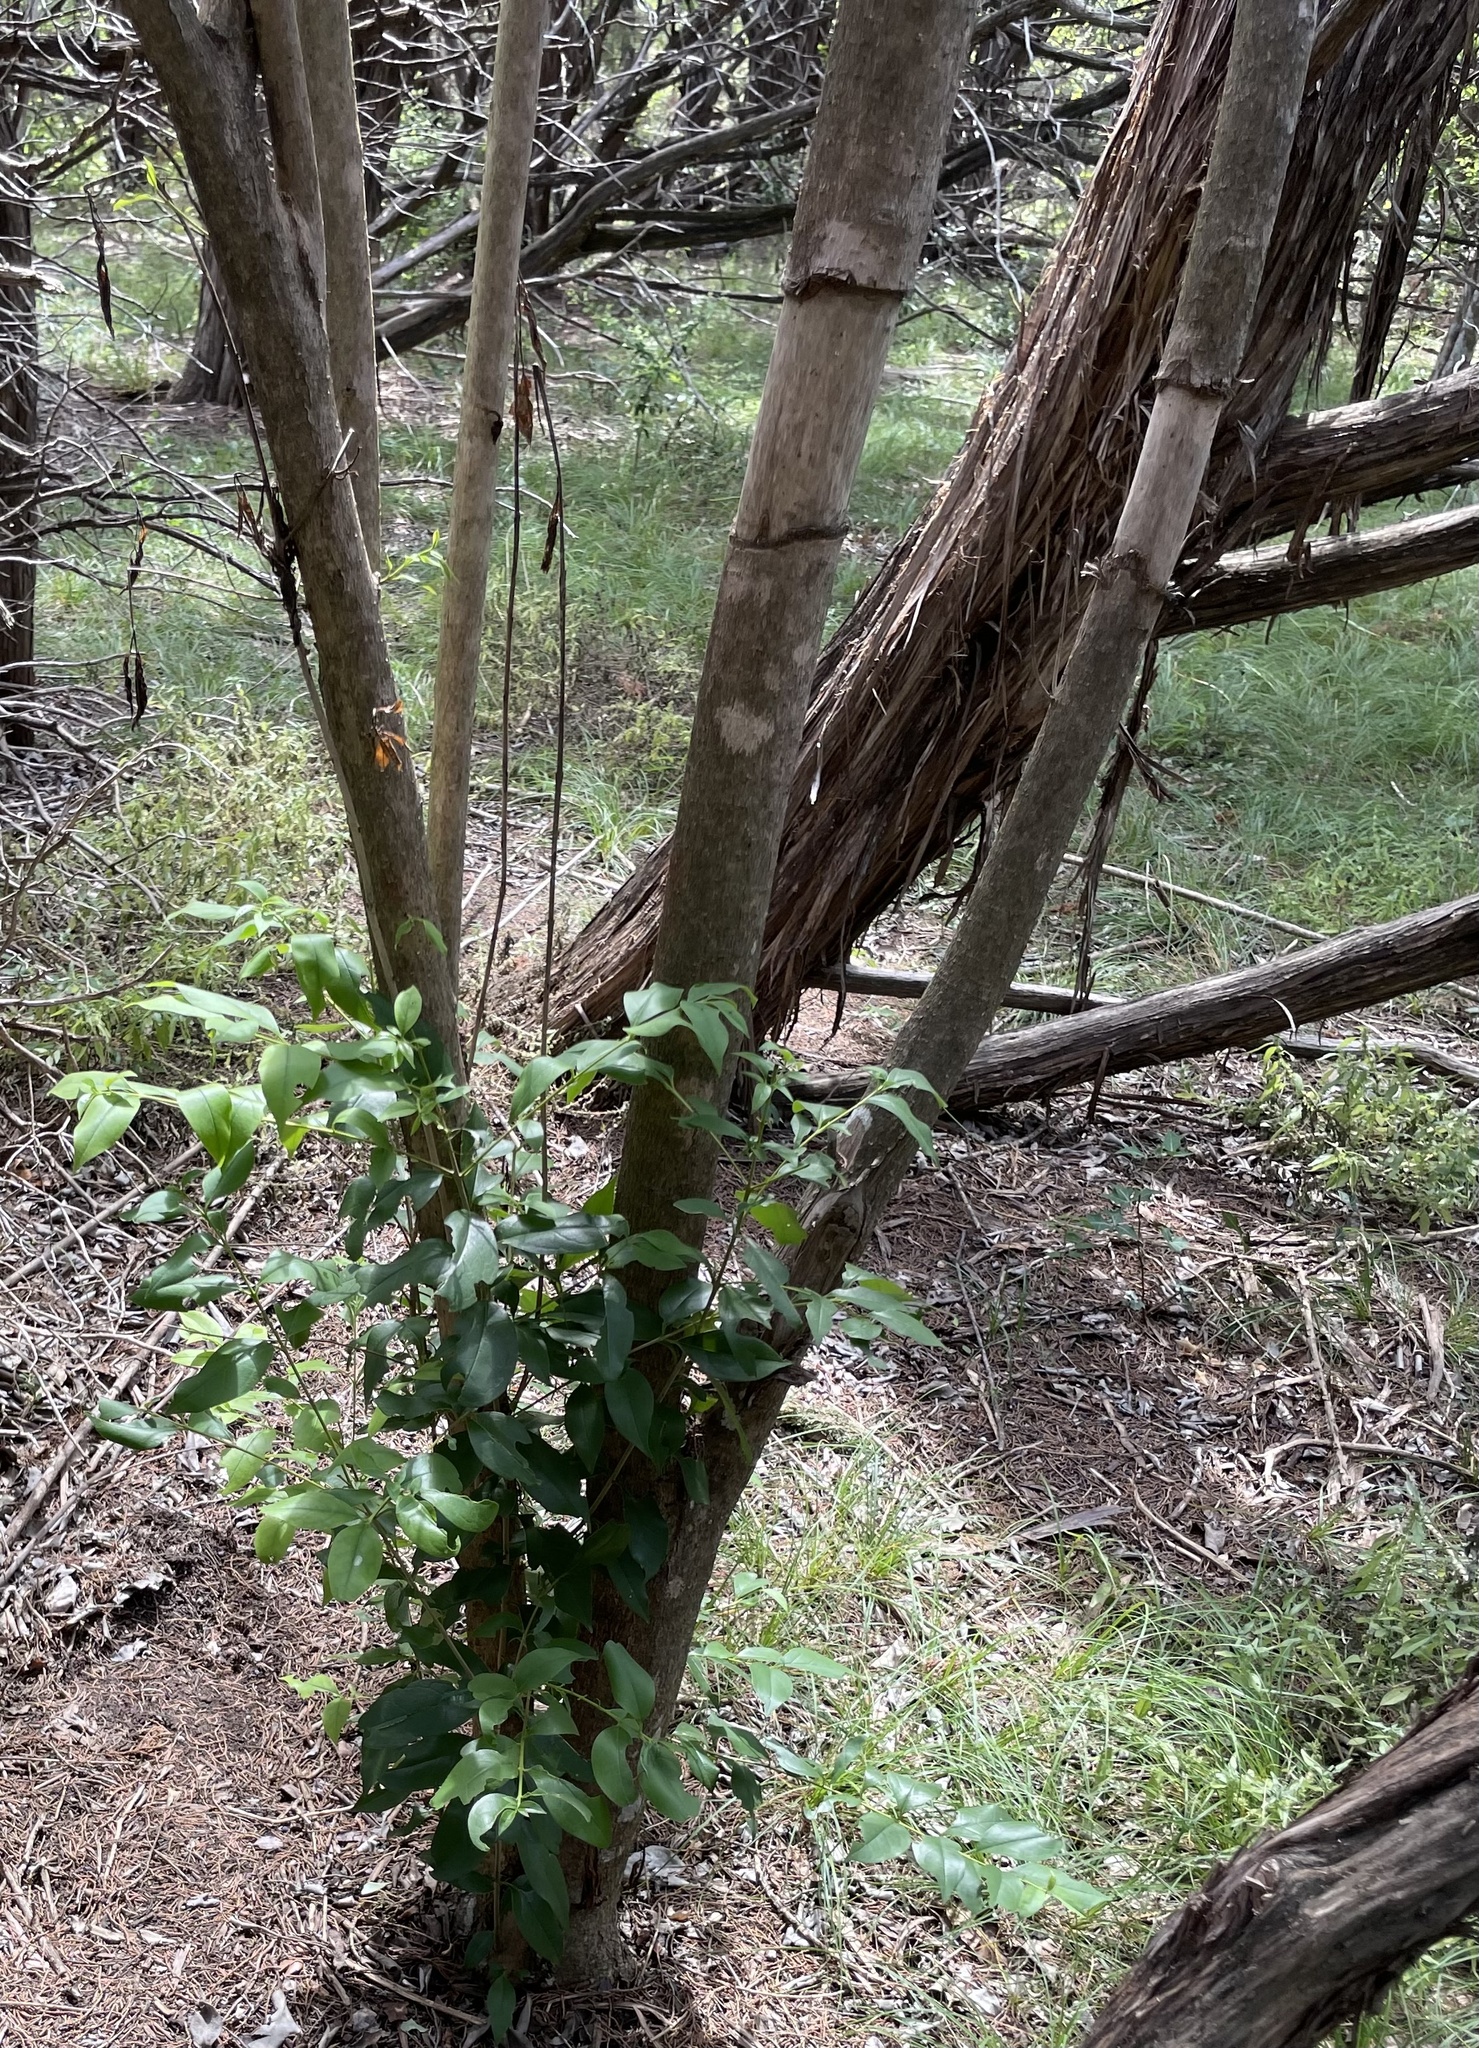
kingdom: Plantae
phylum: Tracheophyta
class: Magnoliopsida
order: Lamiales
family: Oleaceae
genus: Ligustrum
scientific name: Ligustrum lucidum
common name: Glossy privet
